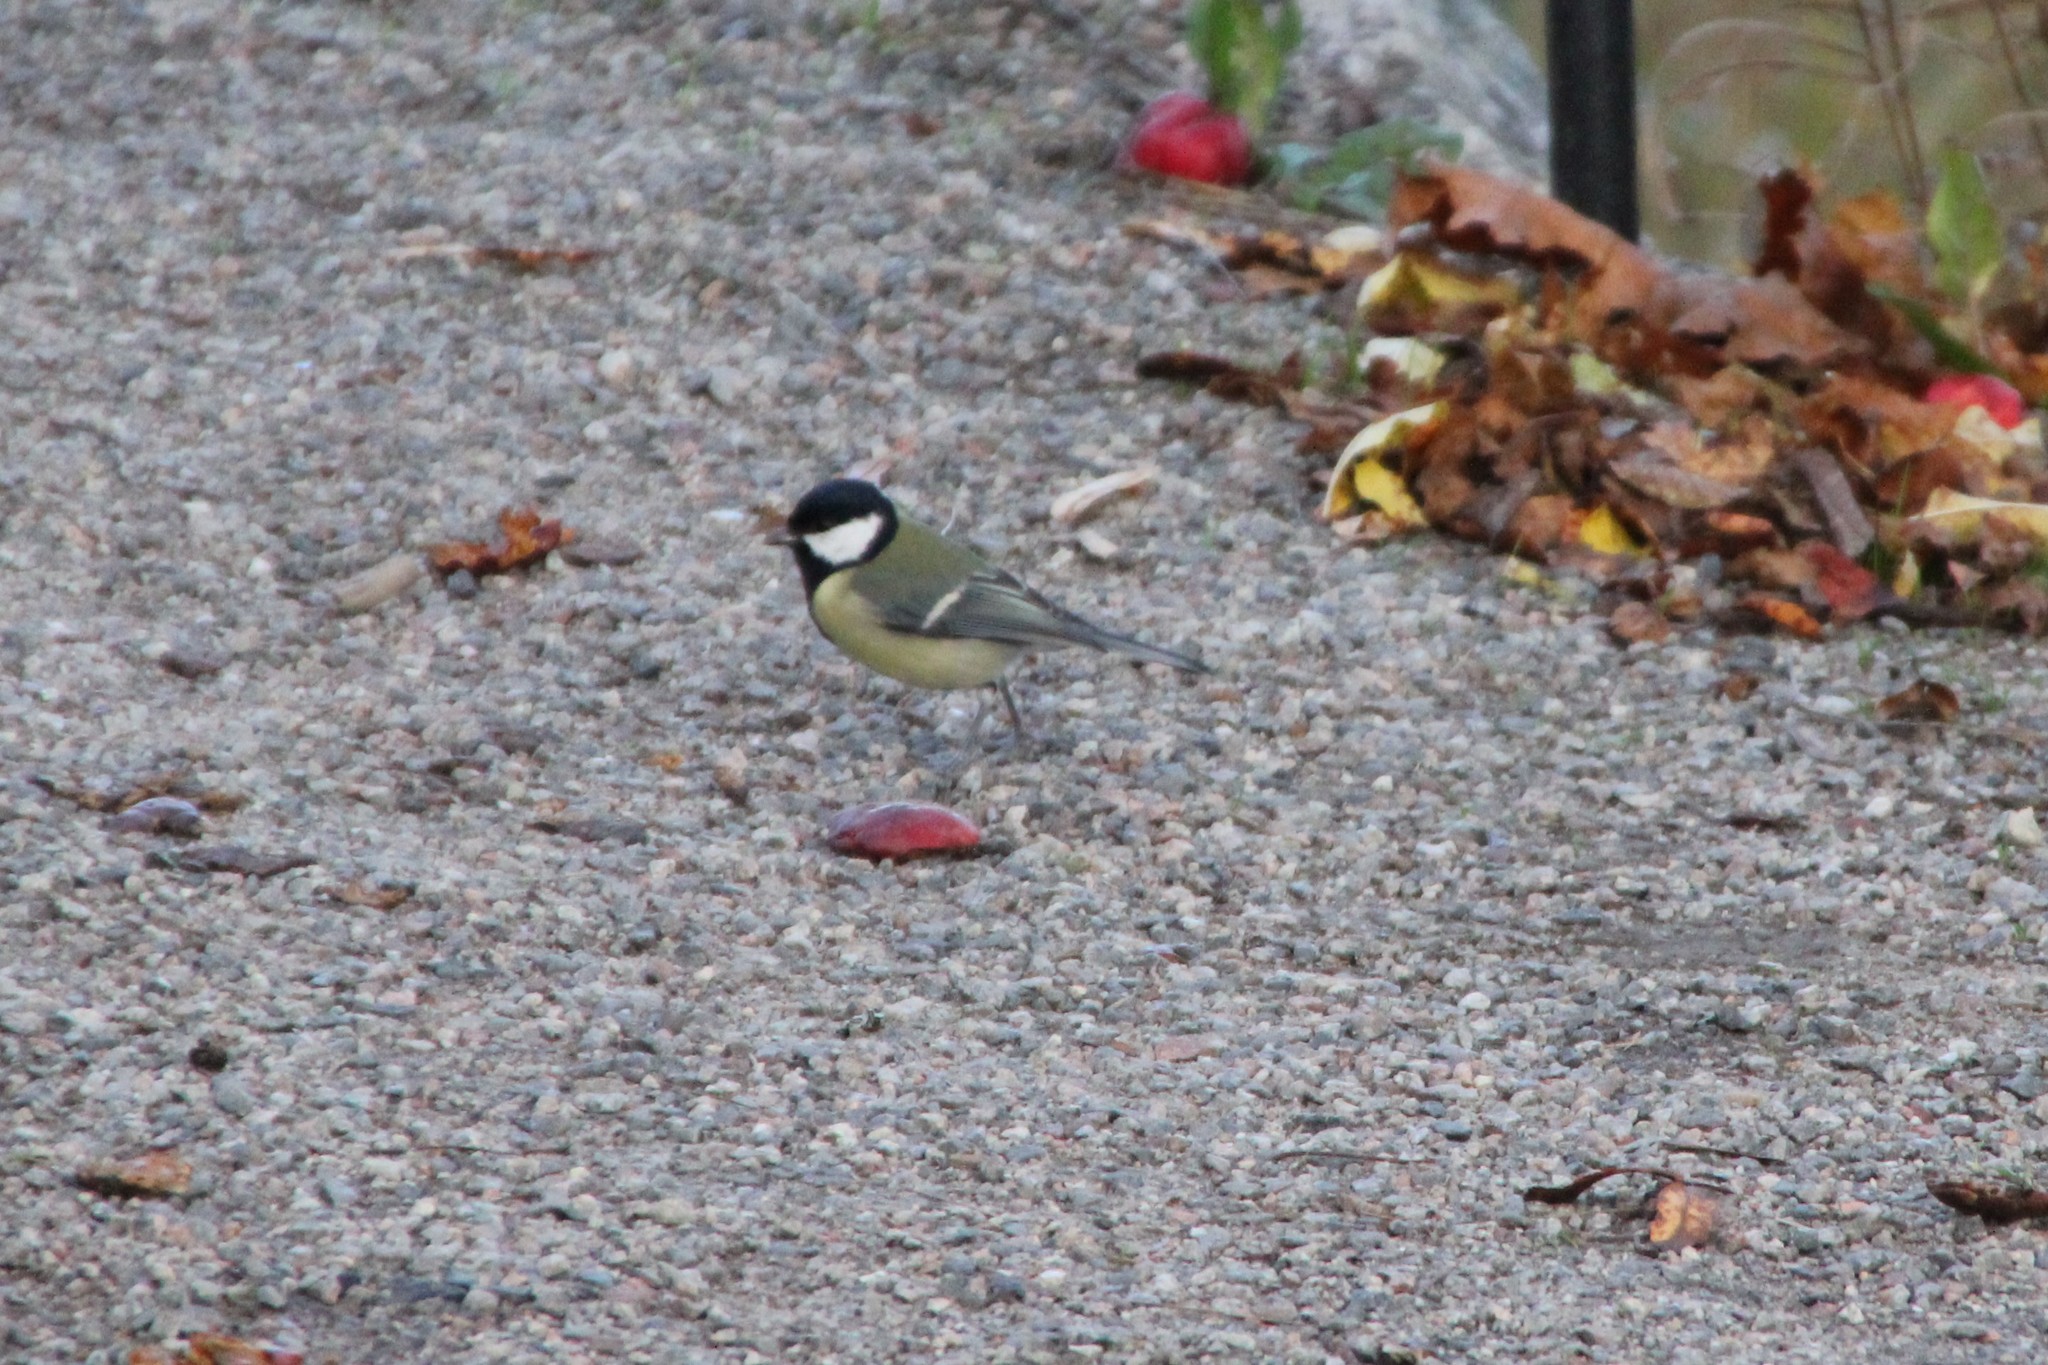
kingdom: Animalia
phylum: Chordata
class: Aves
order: Passeriformes
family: Paridae
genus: Parus
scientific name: Parus major
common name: Great tit
